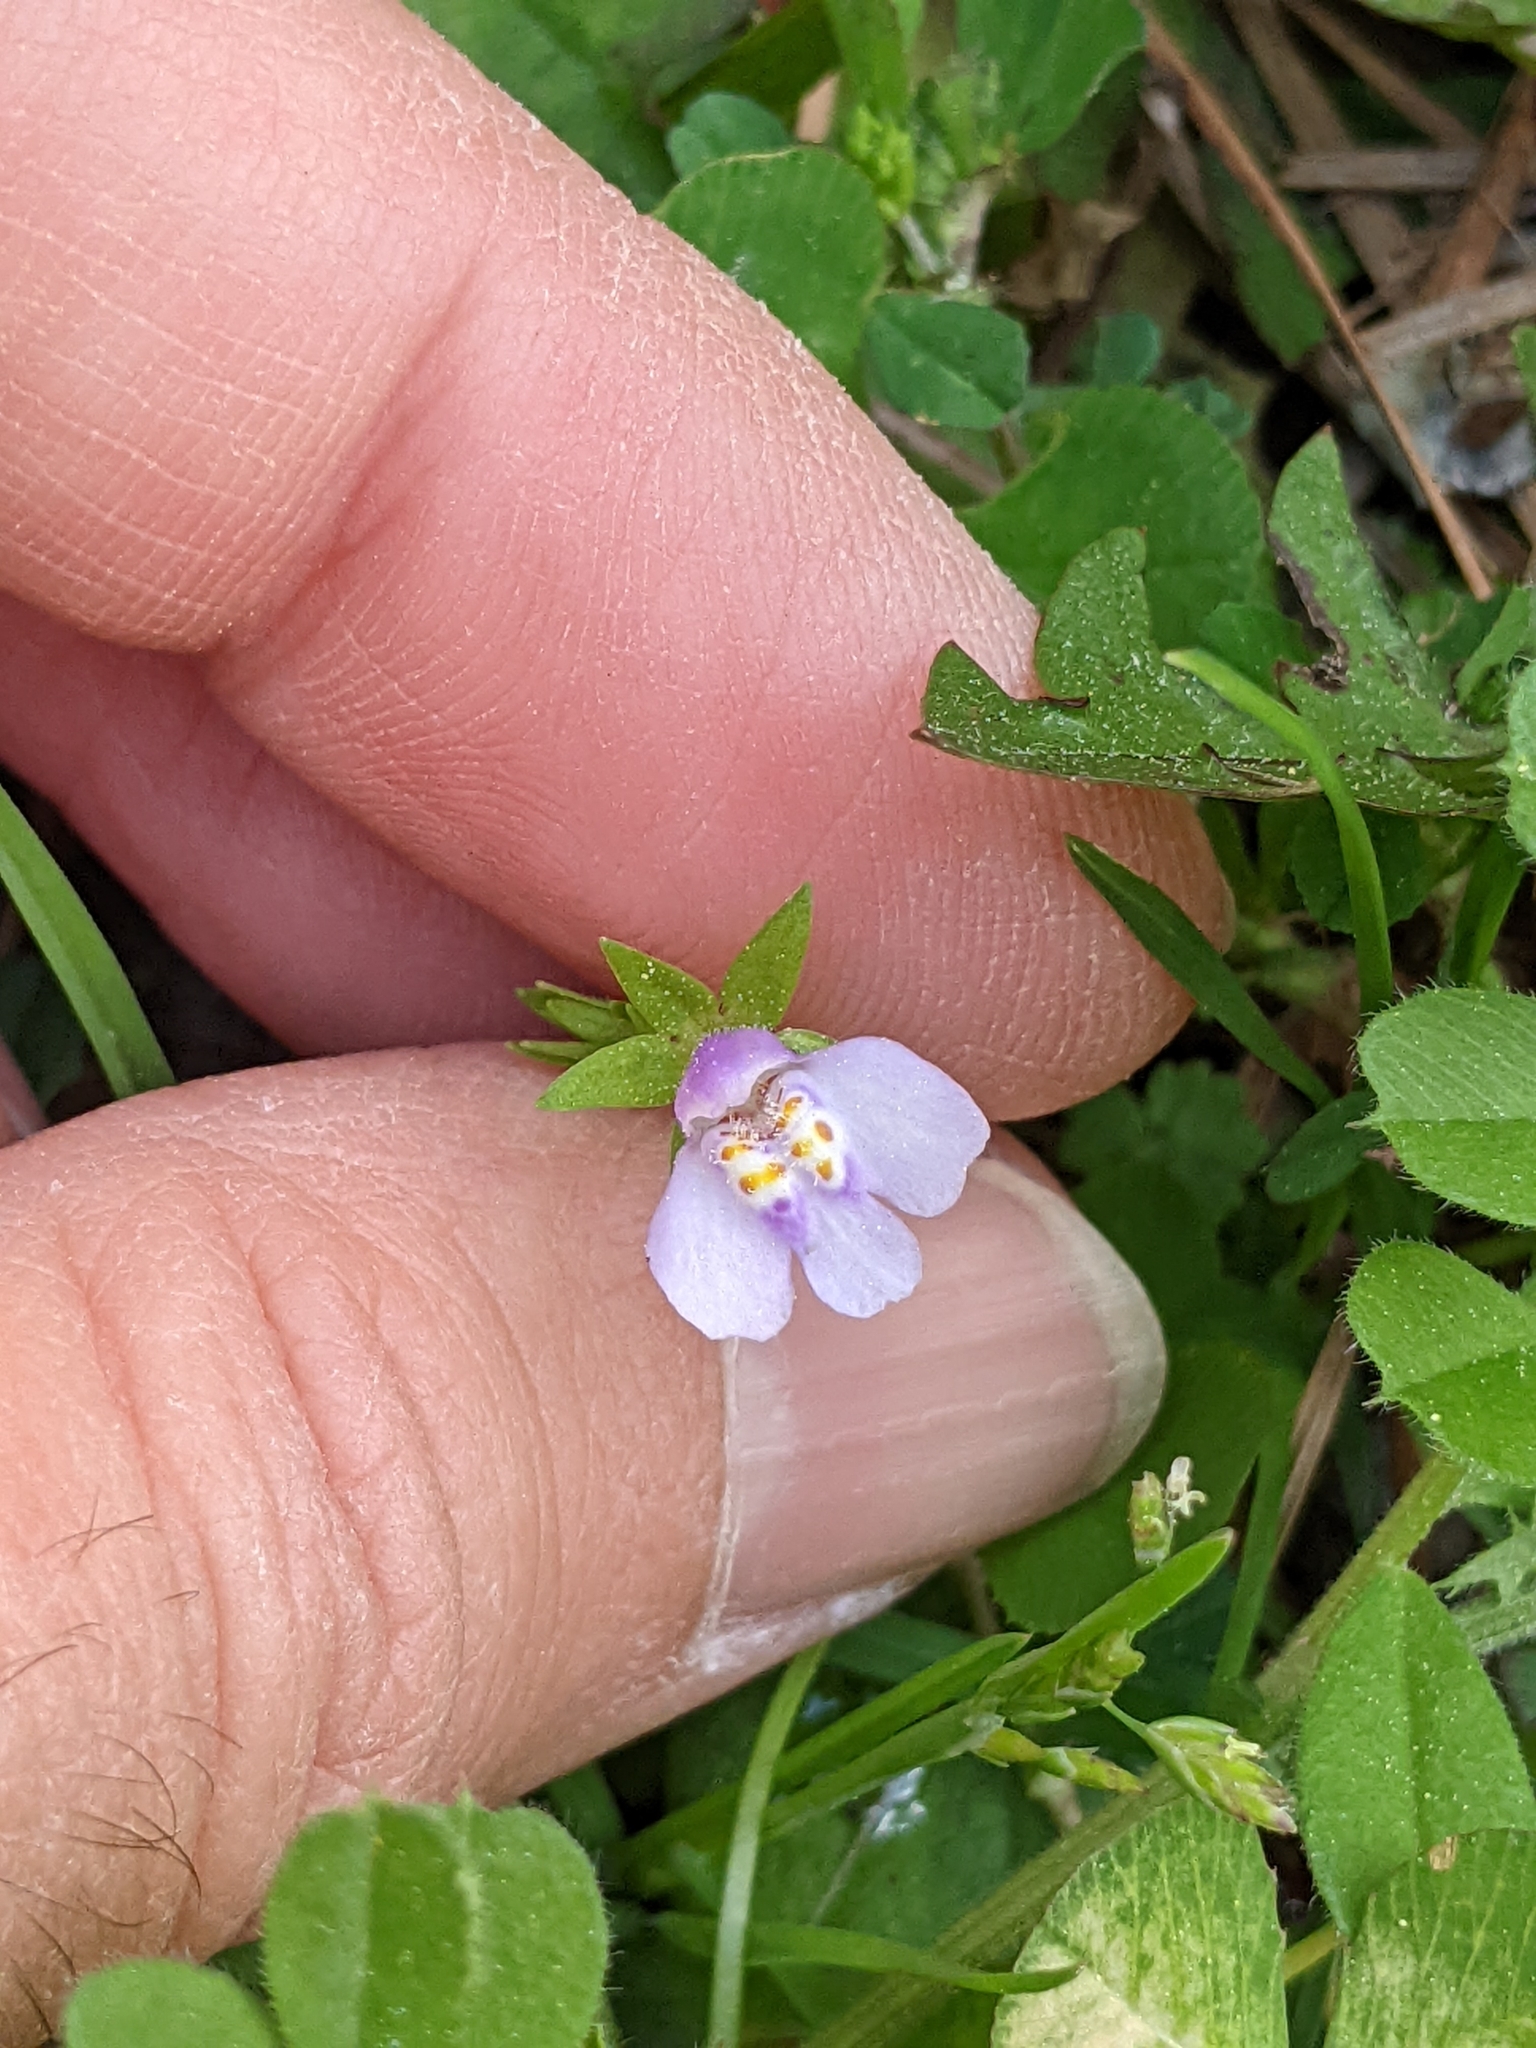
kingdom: Plantae
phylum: Tracheophyta
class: Magnoliopsida
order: Lamiales
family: Mazaceae
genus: Mazus
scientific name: Mazus pumilus
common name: Japanese mazus
